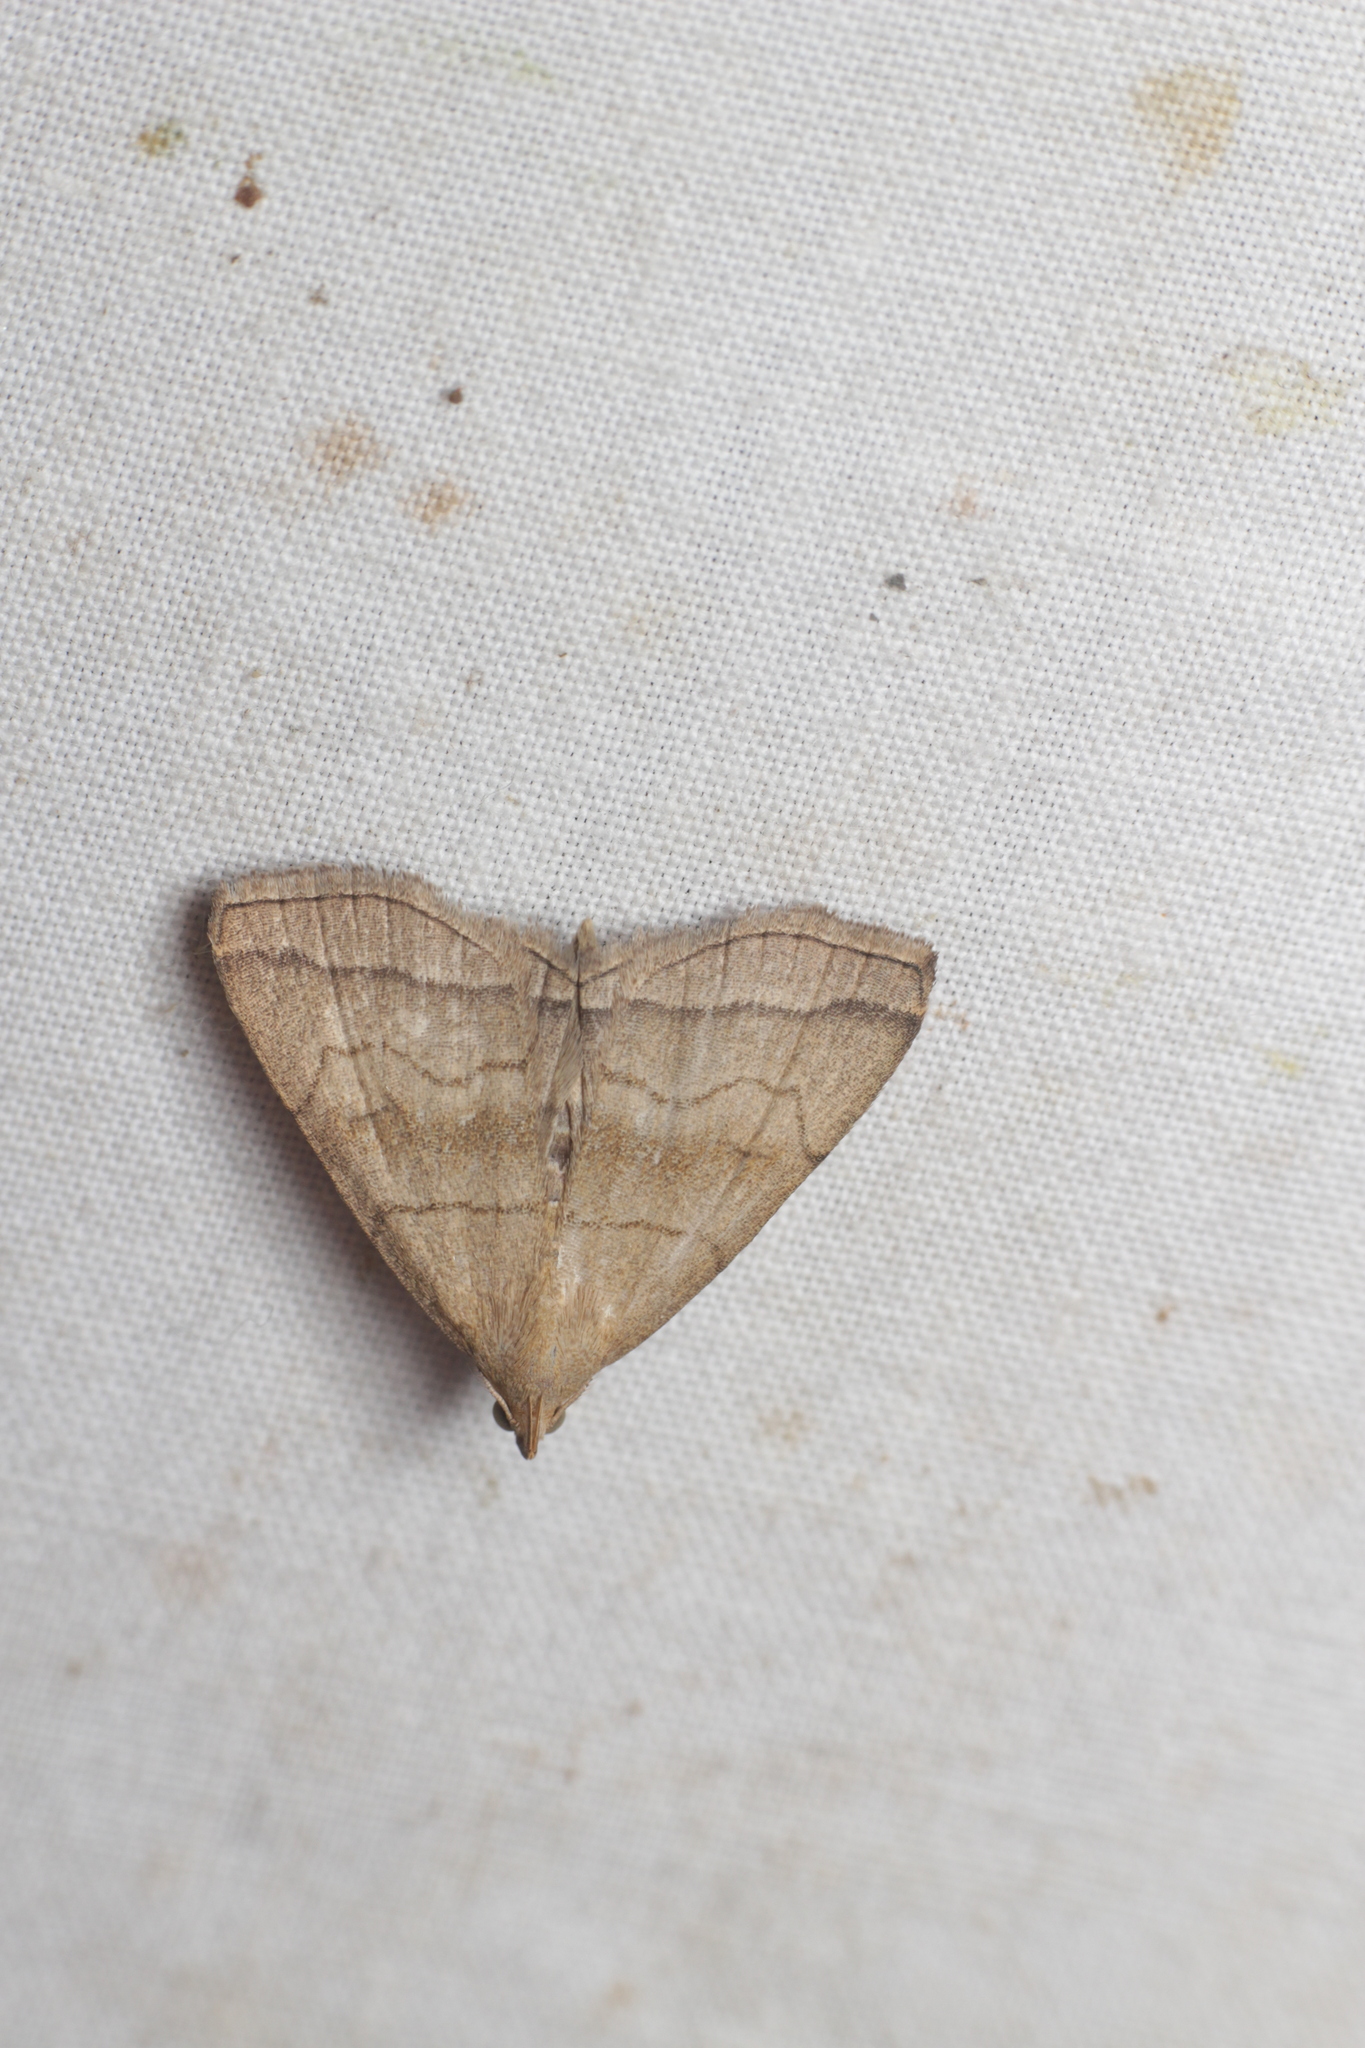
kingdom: Animalia
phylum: Arthropoda
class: Insecta
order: Lepidoptera
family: Erebidae
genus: Herminia
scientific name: Herminia tarsicrinalis
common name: Shaded fan-foot
